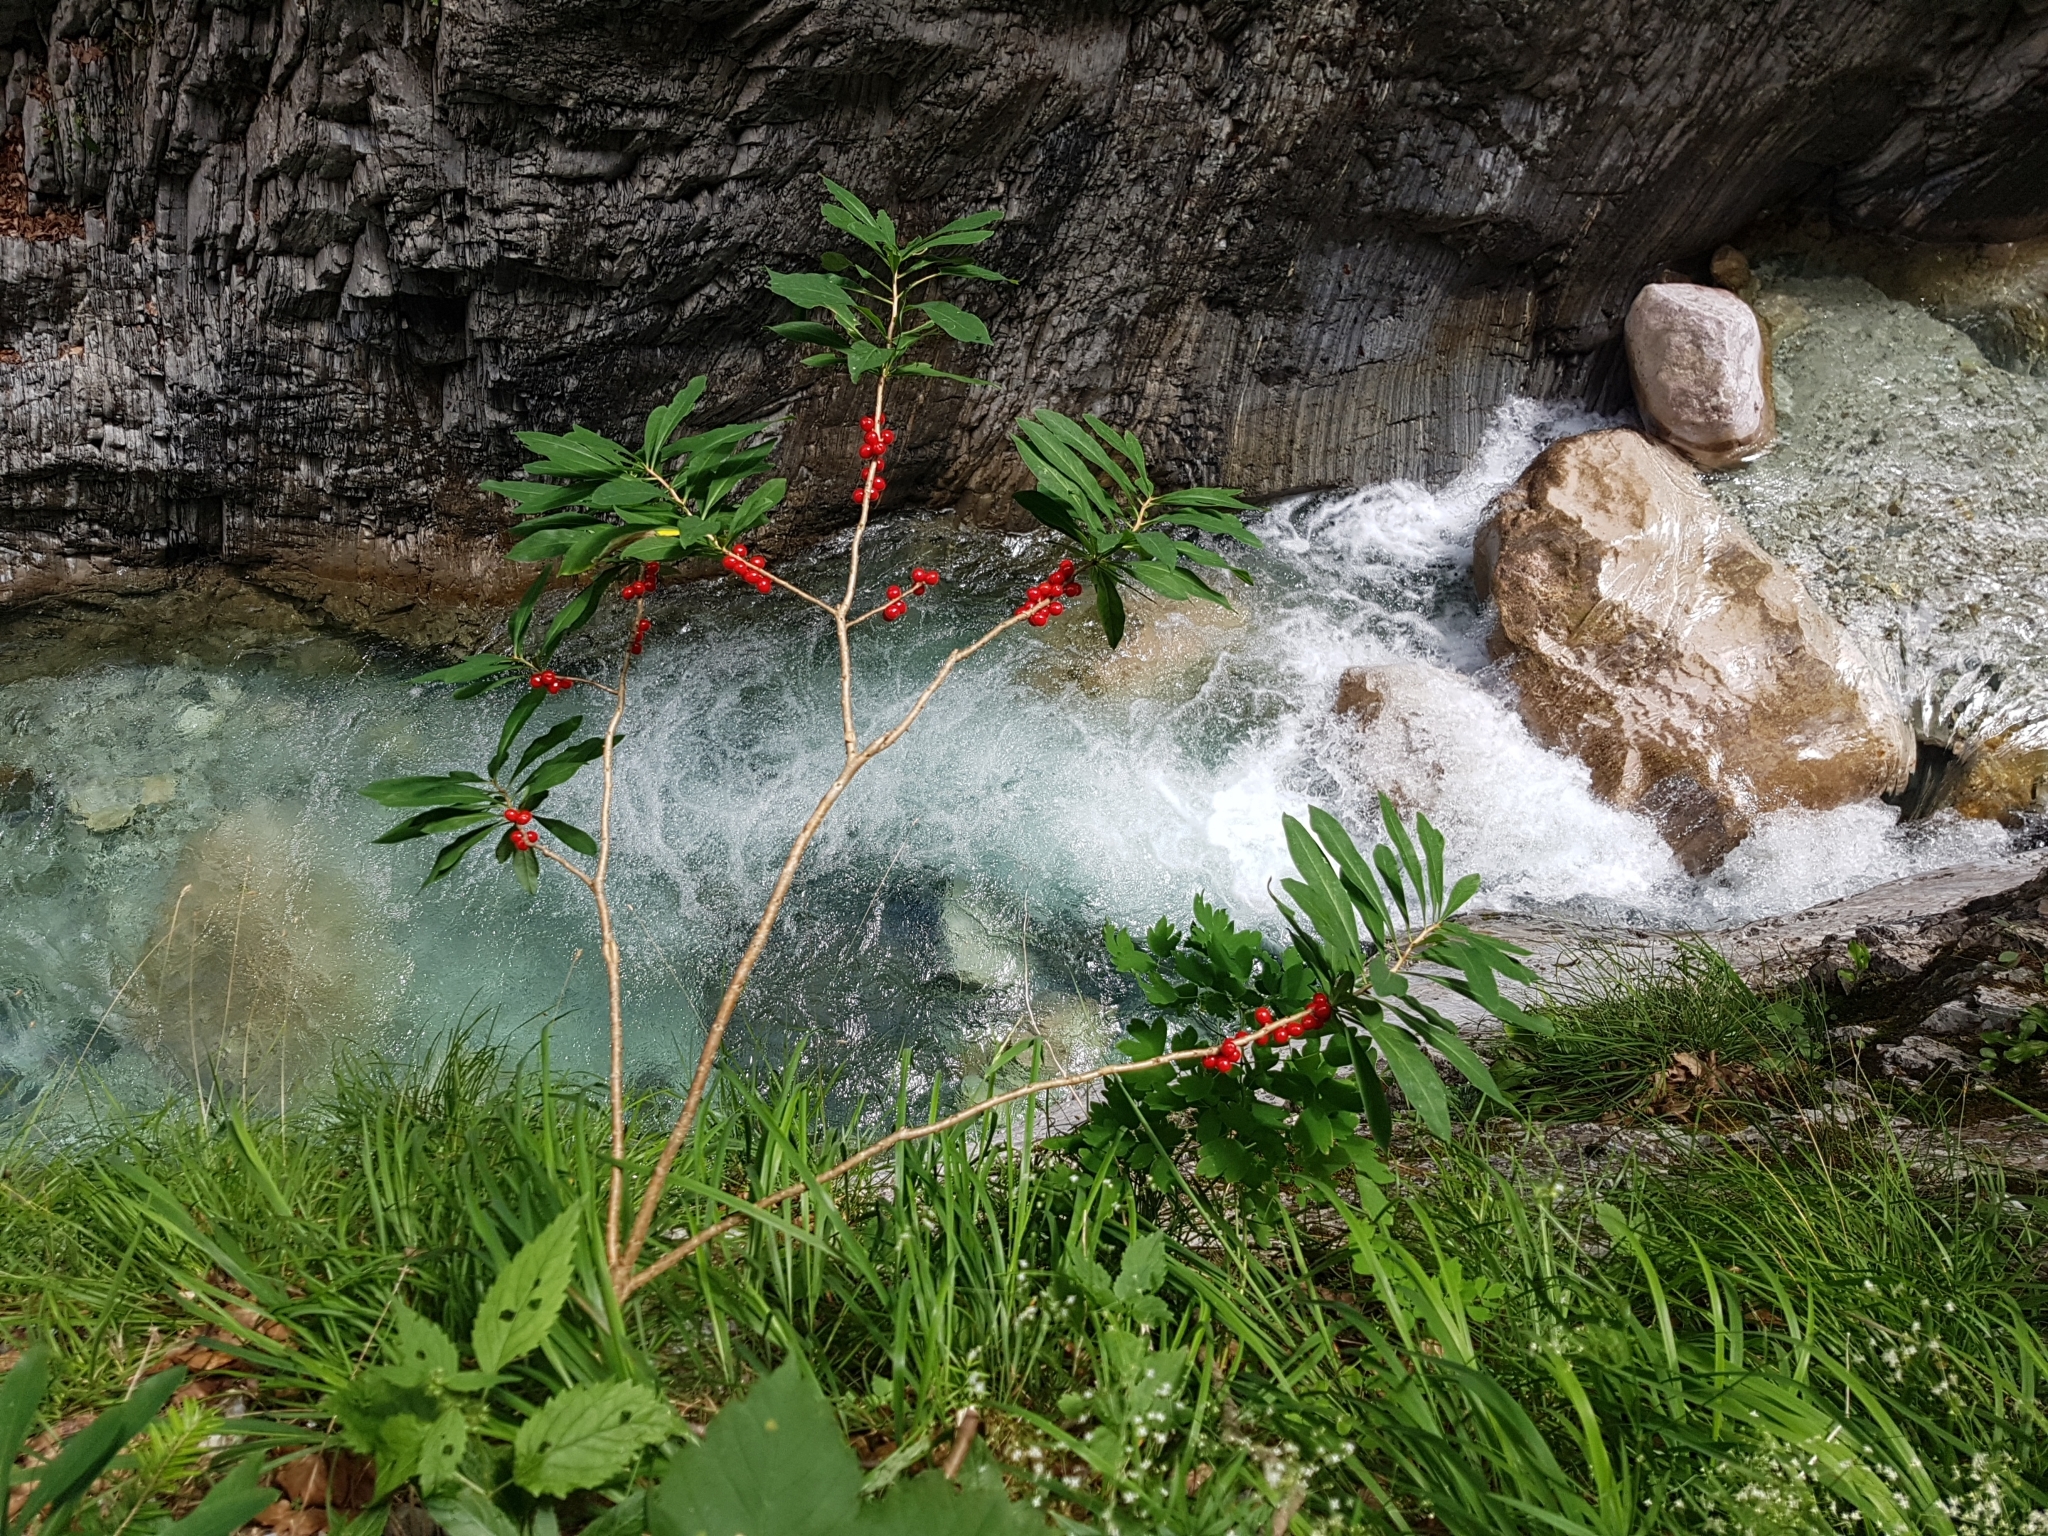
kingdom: Plantae
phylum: Tracheophyta
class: Magnoliopsida
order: Malvales
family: Thymelaeaceae
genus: Daphne
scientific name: Daphne mezereum
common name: Mezereon
